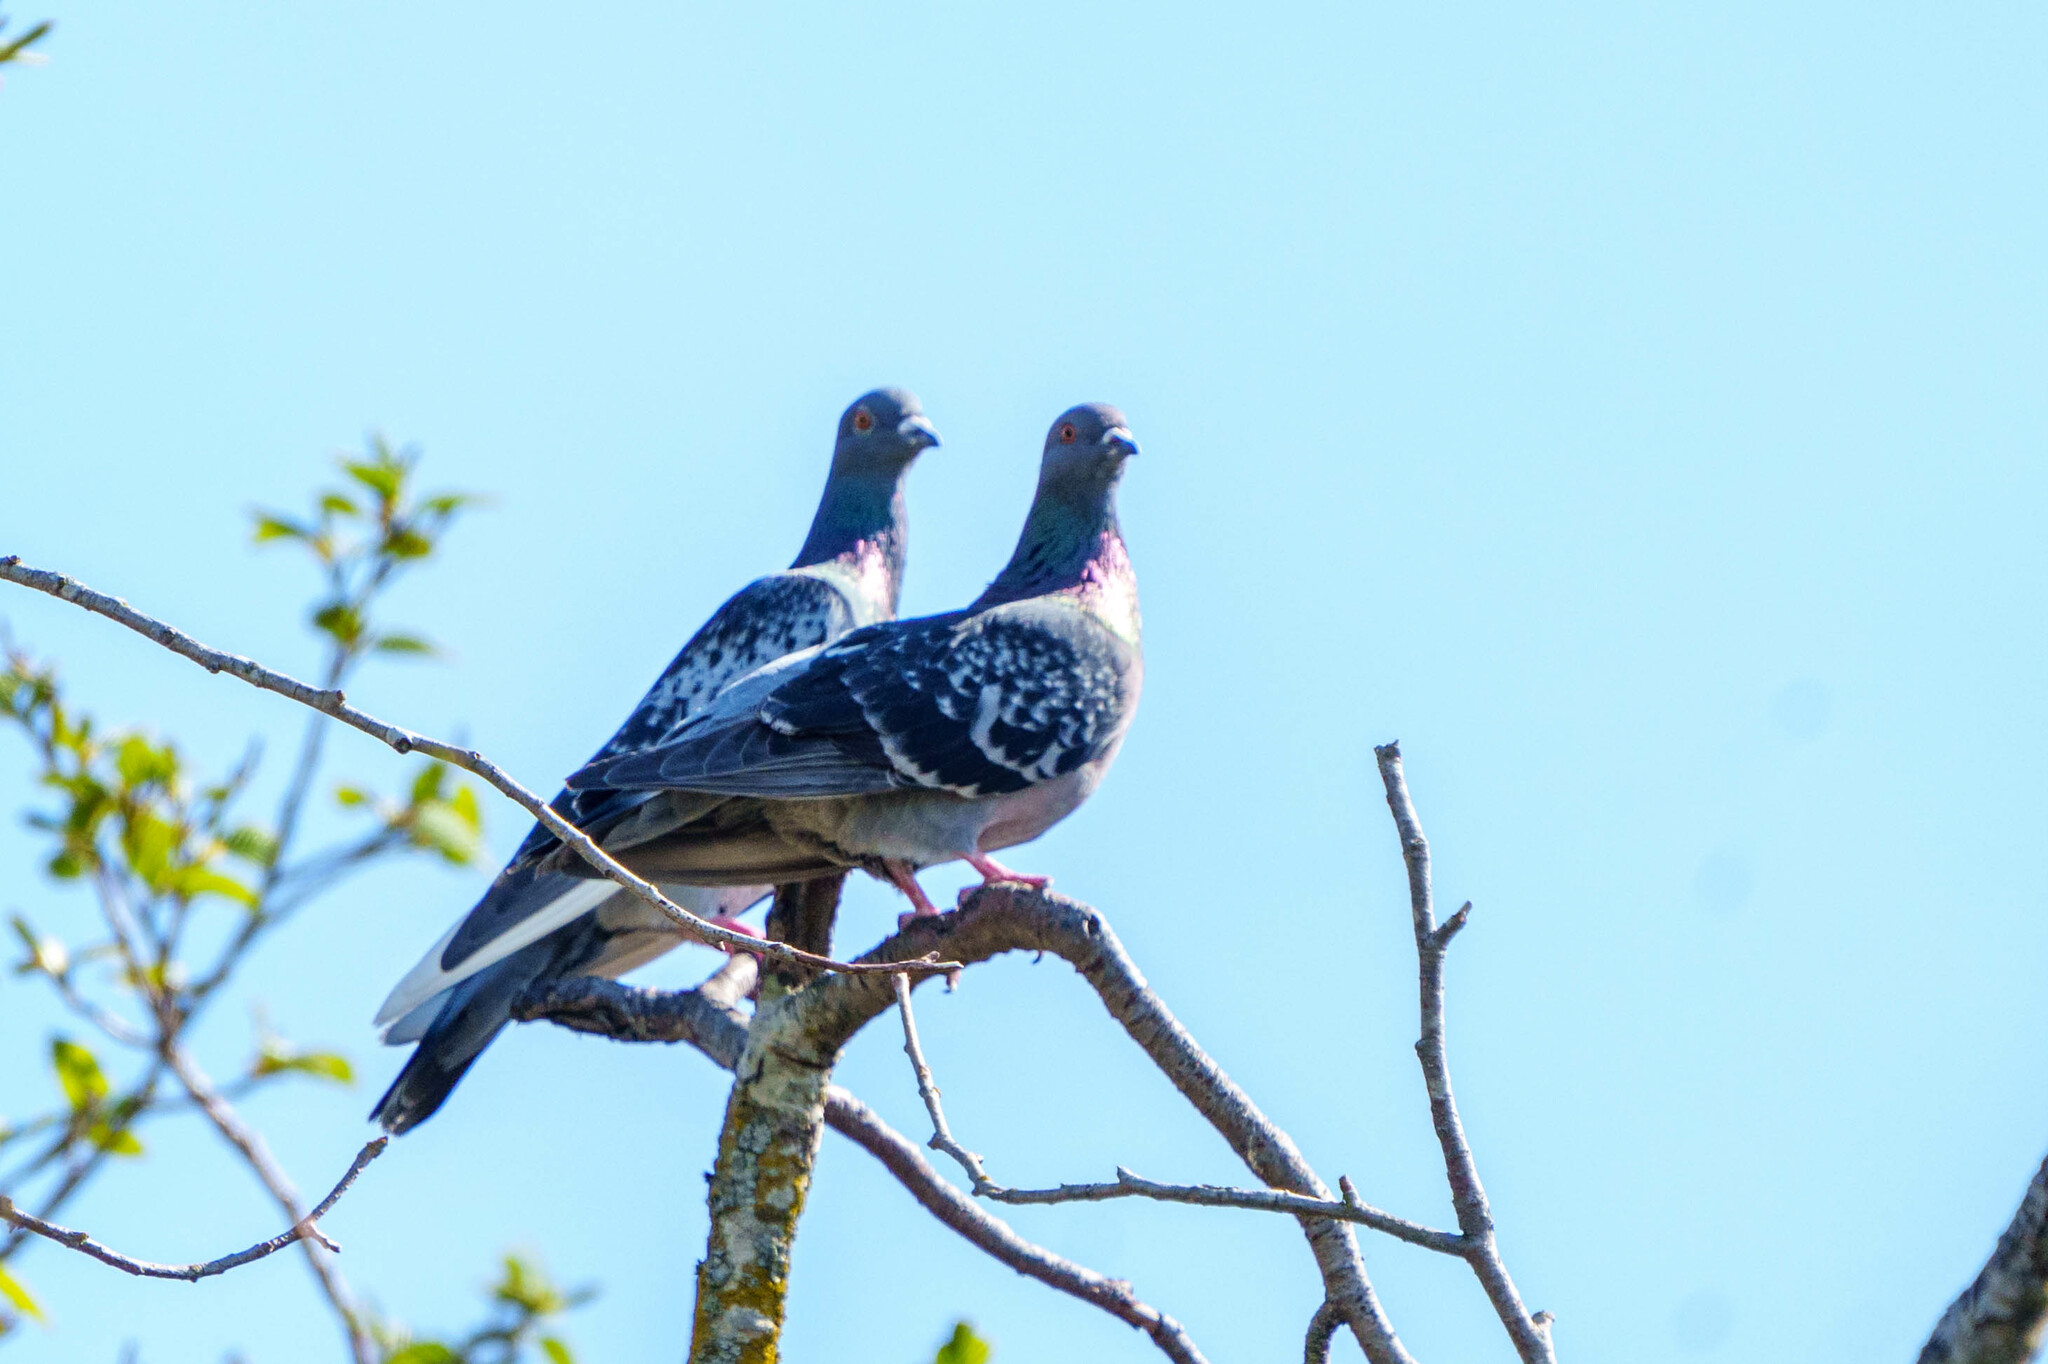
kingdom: Animalia
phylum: Chordata
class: Aves
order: Columbiformes
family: Columbidae
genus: Columba
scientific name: Columba livia
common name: Rock pigeon
